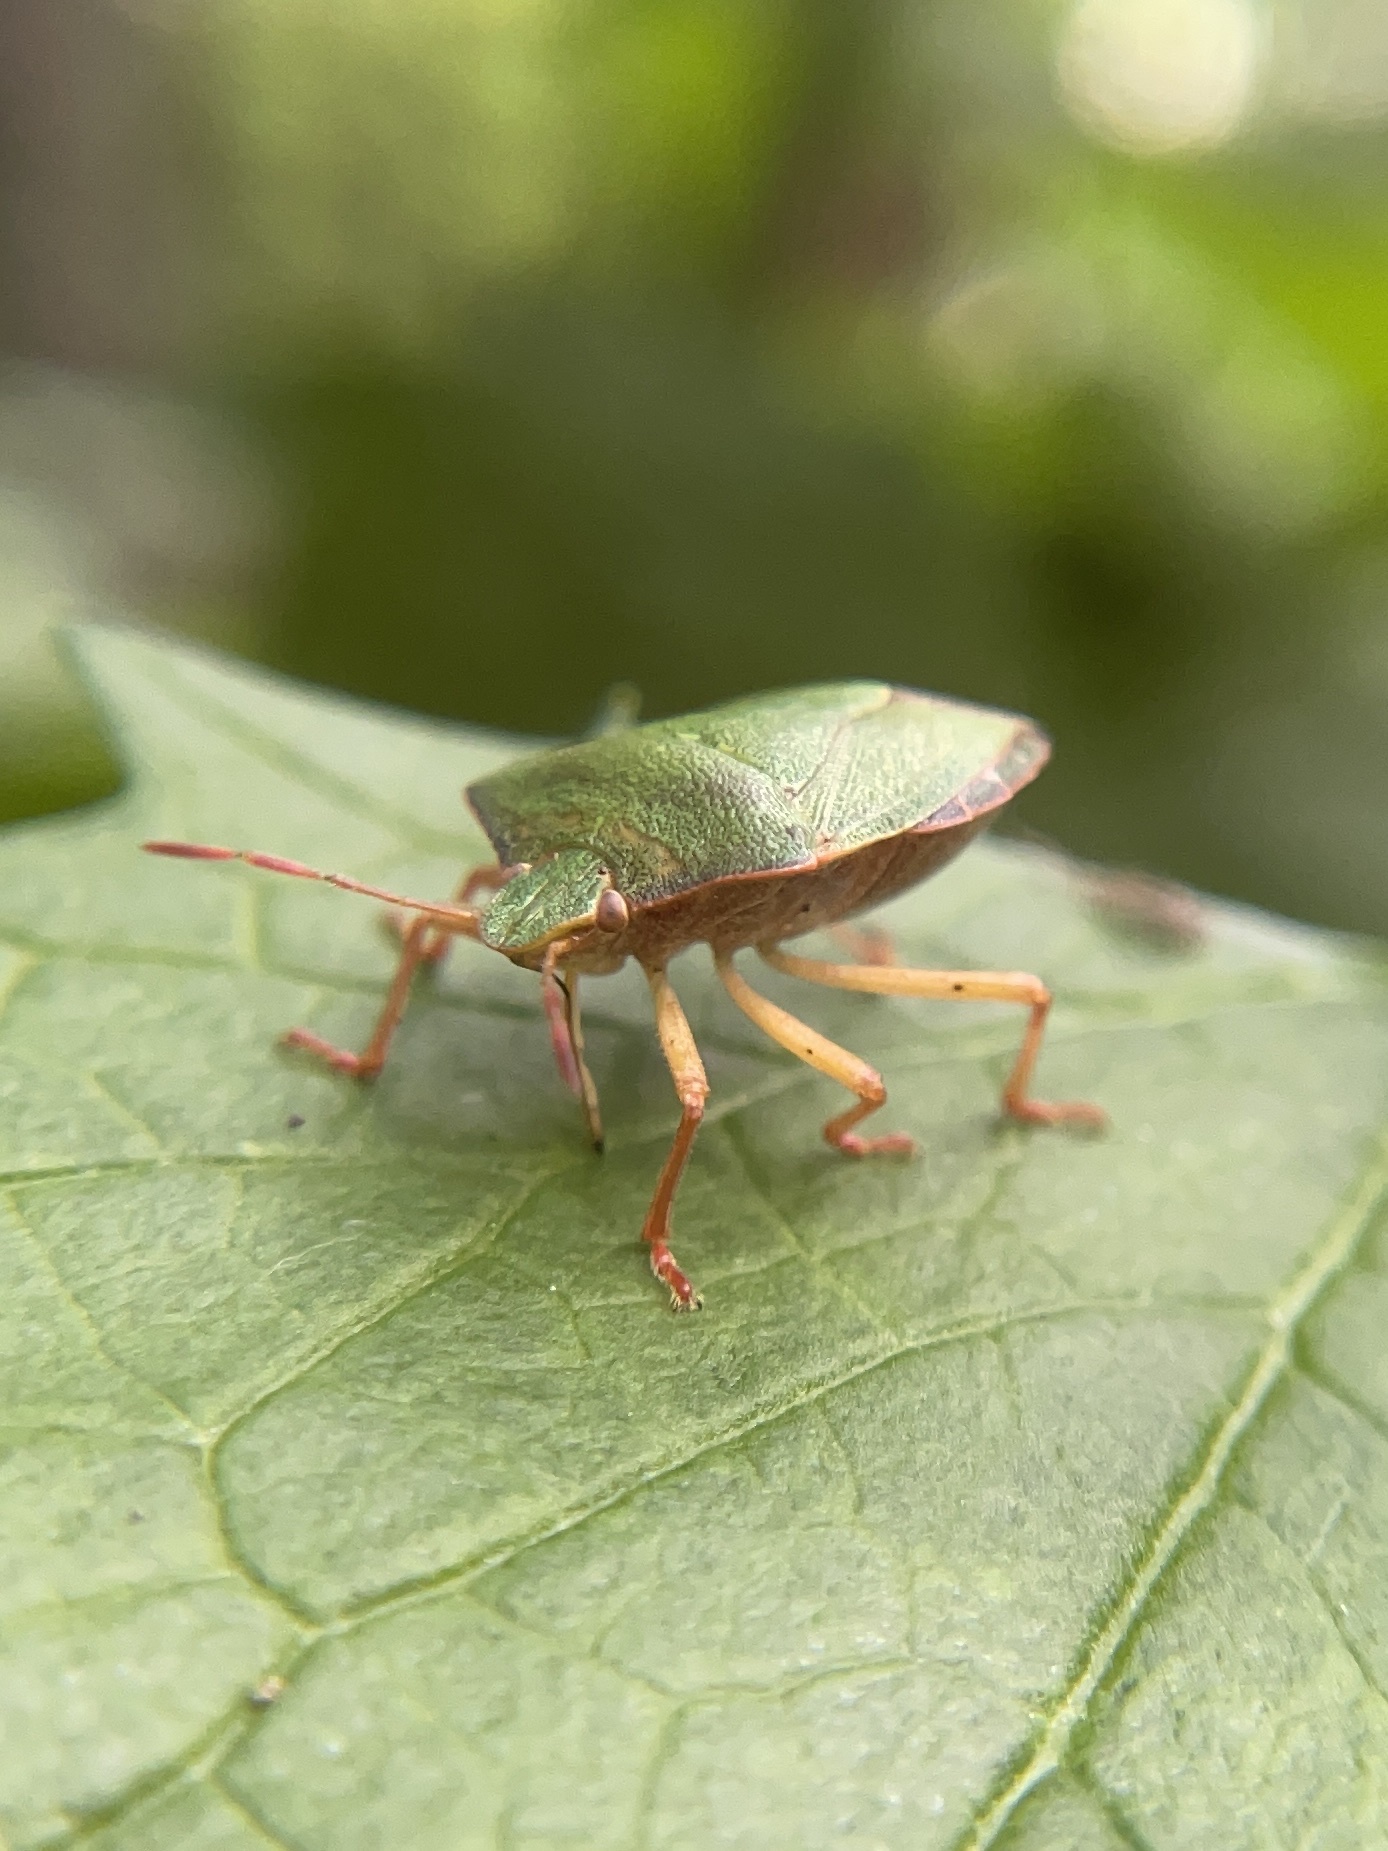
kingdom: Animalia
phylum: Arthropoda
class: Insecta
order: Hemiptera
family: Pentatomidae
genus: Palomena
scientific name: Palomena prasina
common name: Green shieldbug
